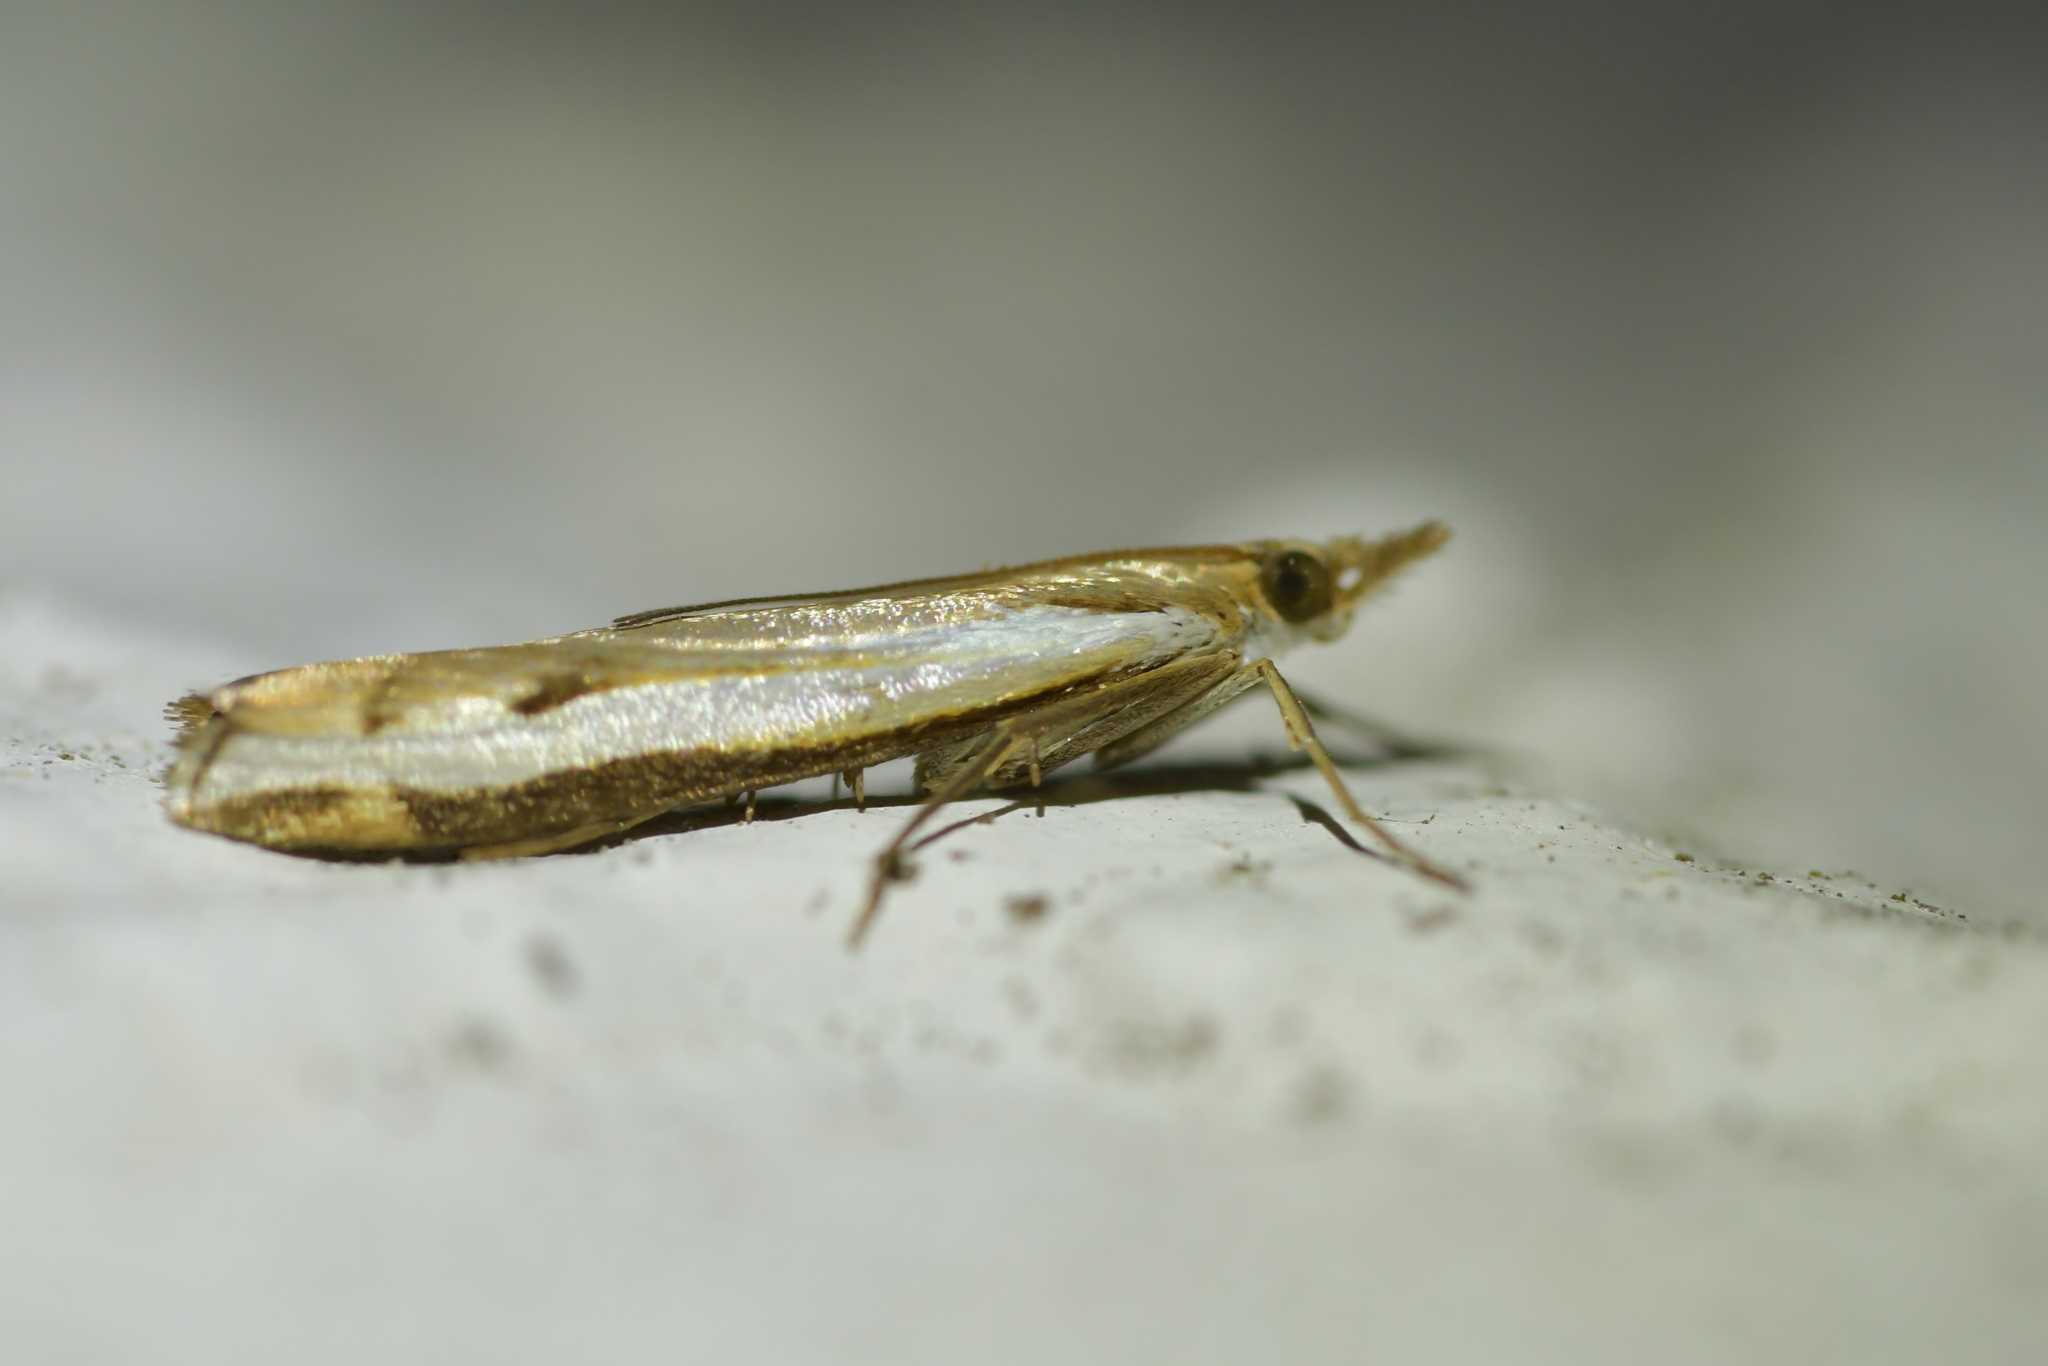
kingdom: Animalia
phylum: Arthropoda
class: Insecta
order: Lepidoptera
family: Crambidae
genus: Orocrambus
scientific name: Orocrambus flexuosellus
